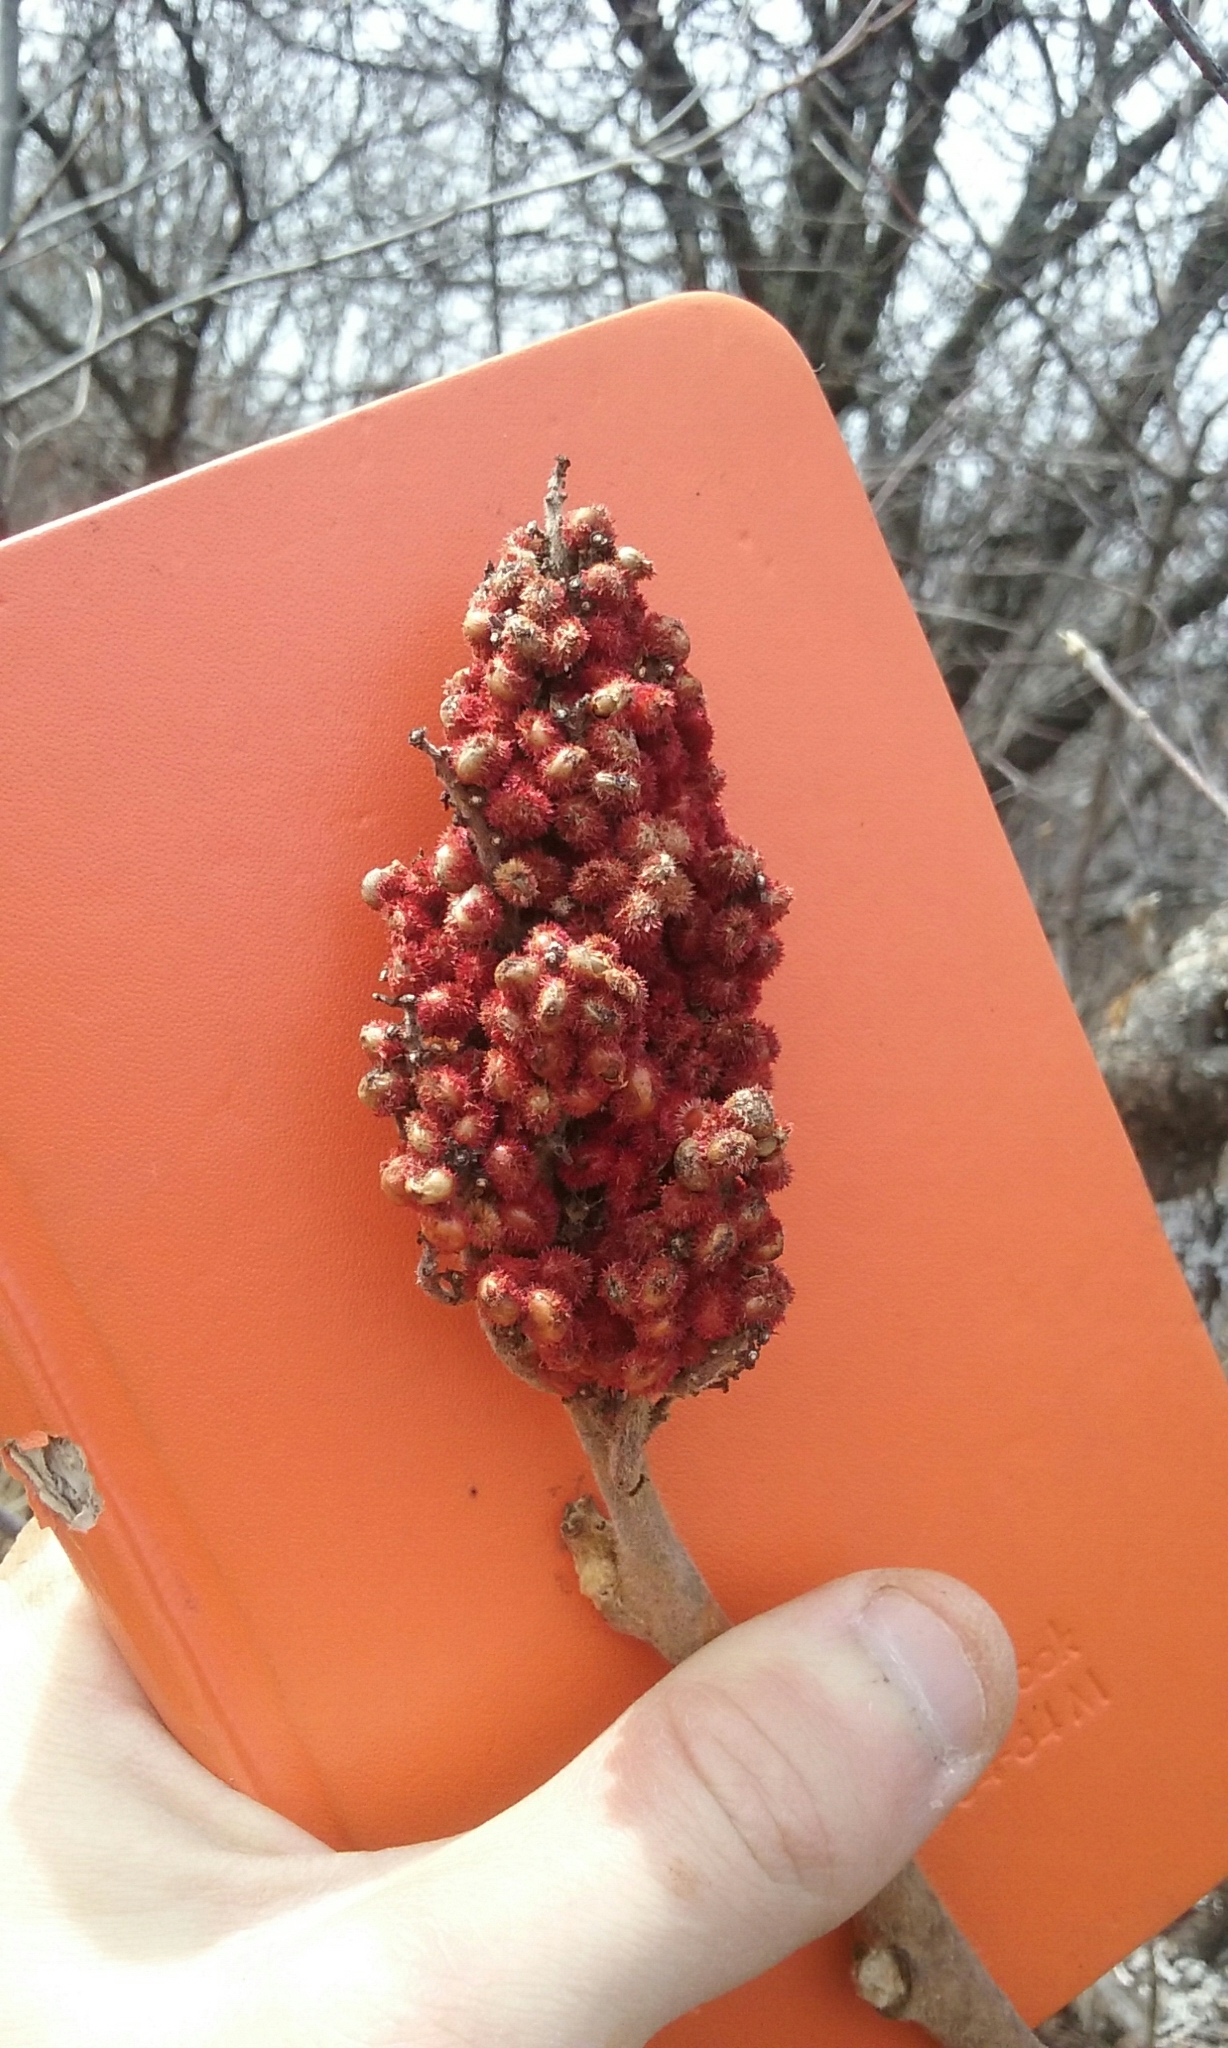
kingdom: Plantae
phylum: Tracheophyta
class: Magnoliopsida
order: Sapindales
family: Anacardiaceae
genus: Rhus
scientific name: Rhus typhina
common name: Staghorn sumac
